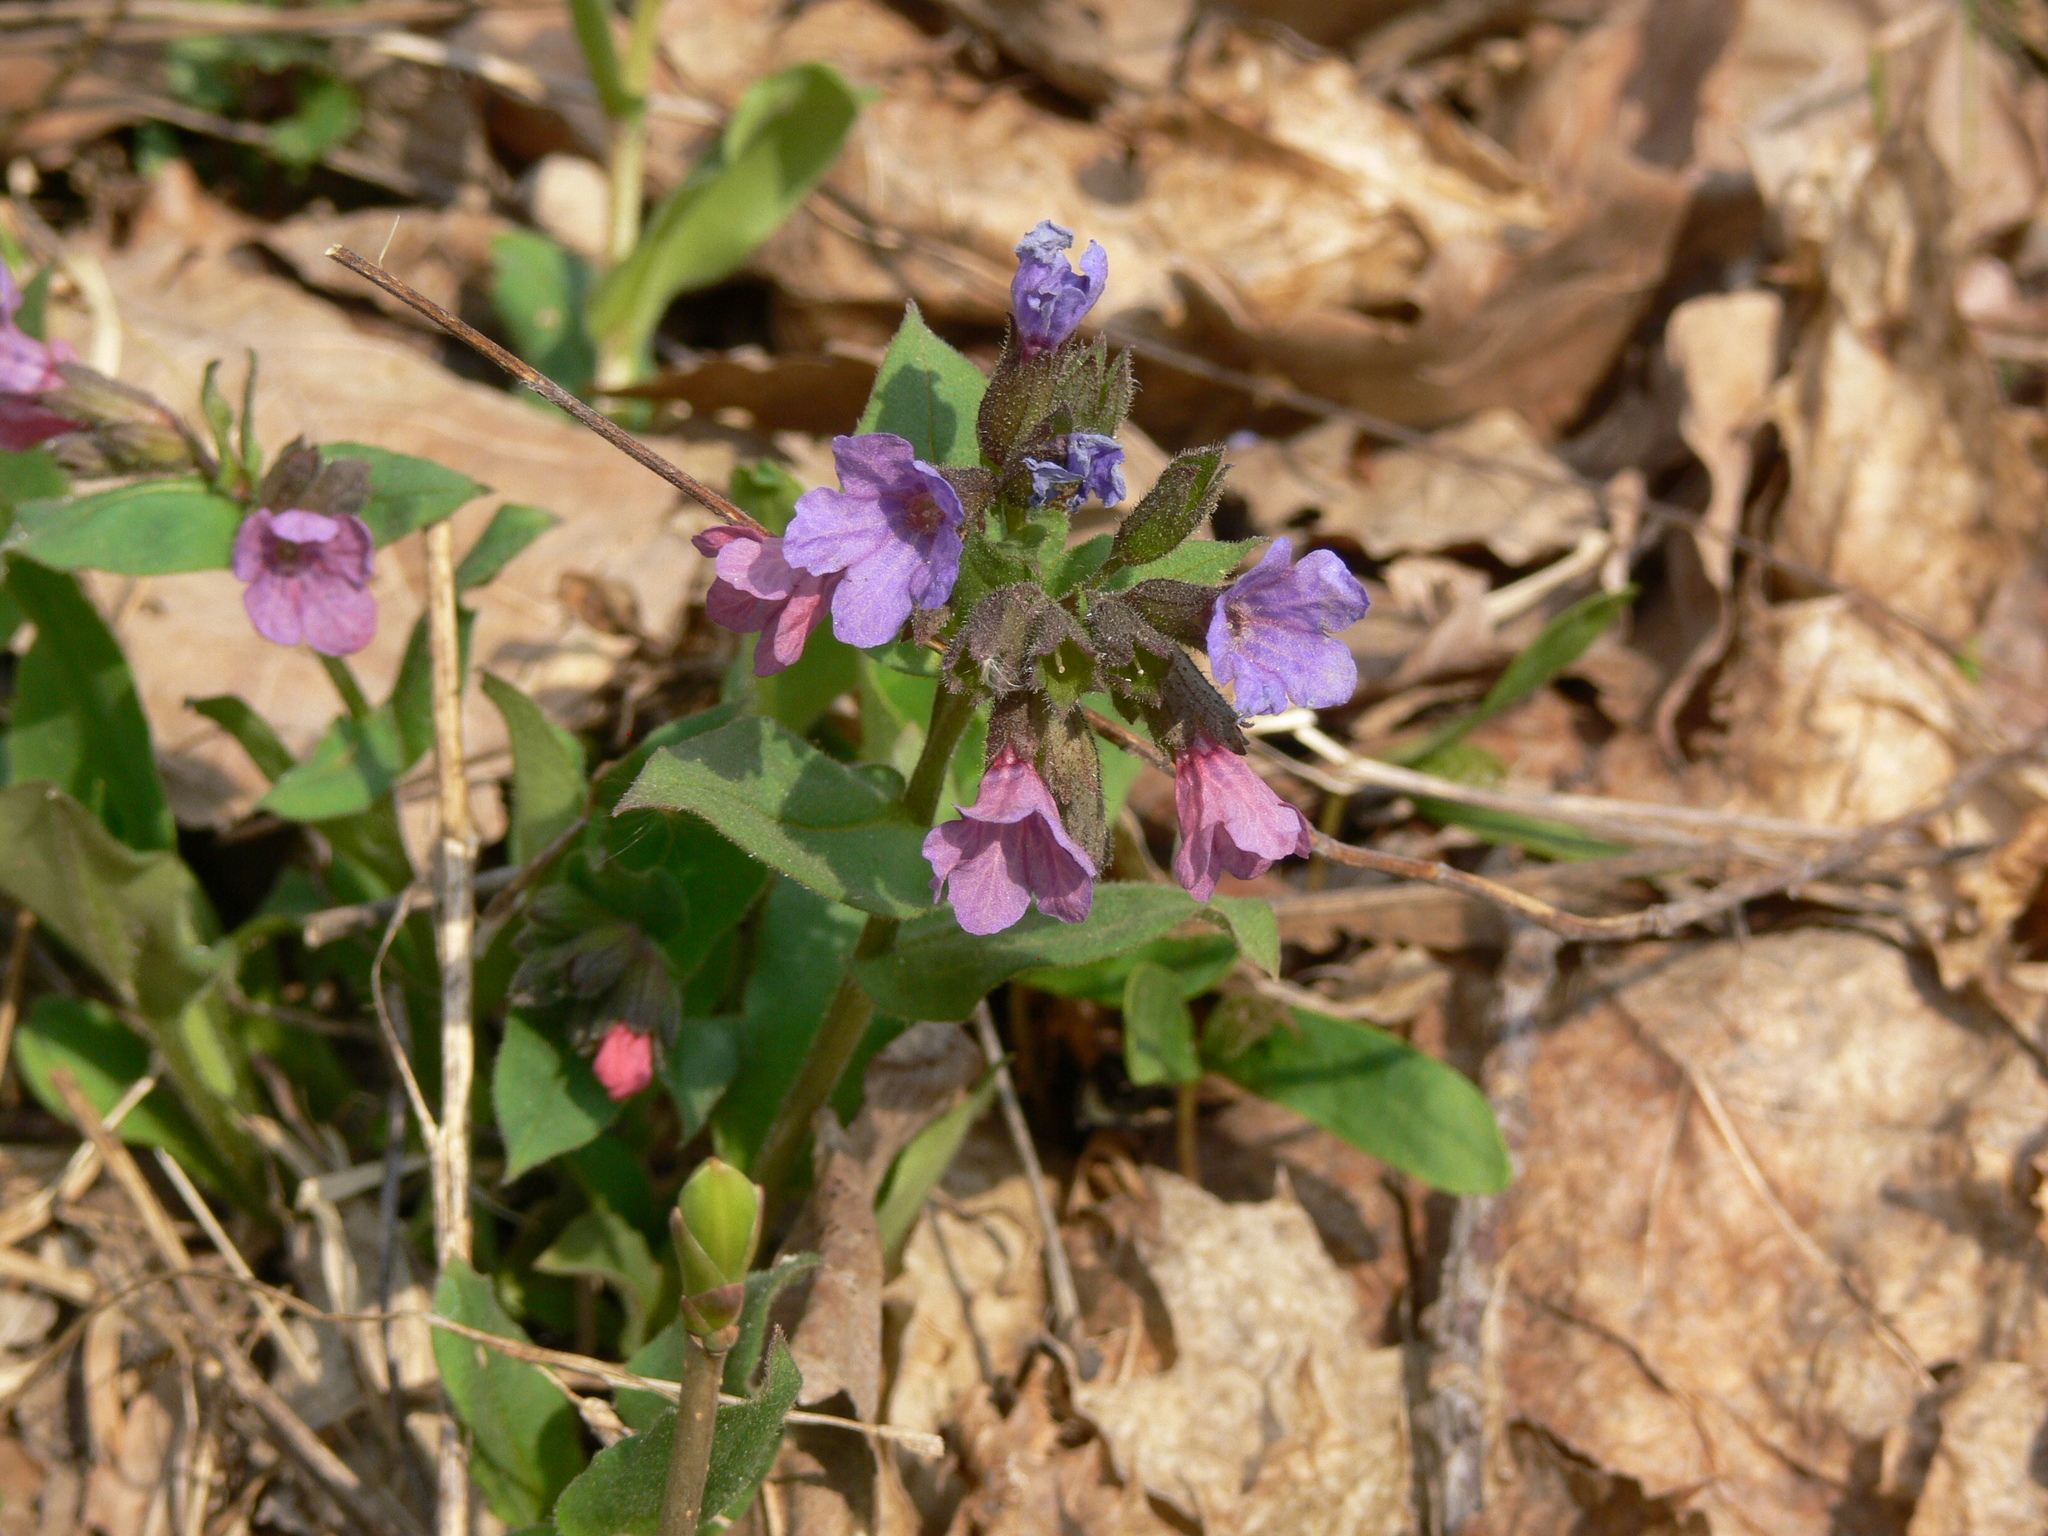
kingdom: Plantae
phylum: Tracheophyta
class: Magnoliopsida
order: Boraginales
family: Boraginaceae
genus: Pulmonaria
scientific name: Pulmonaria obscura
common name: Suffolk lungwort
